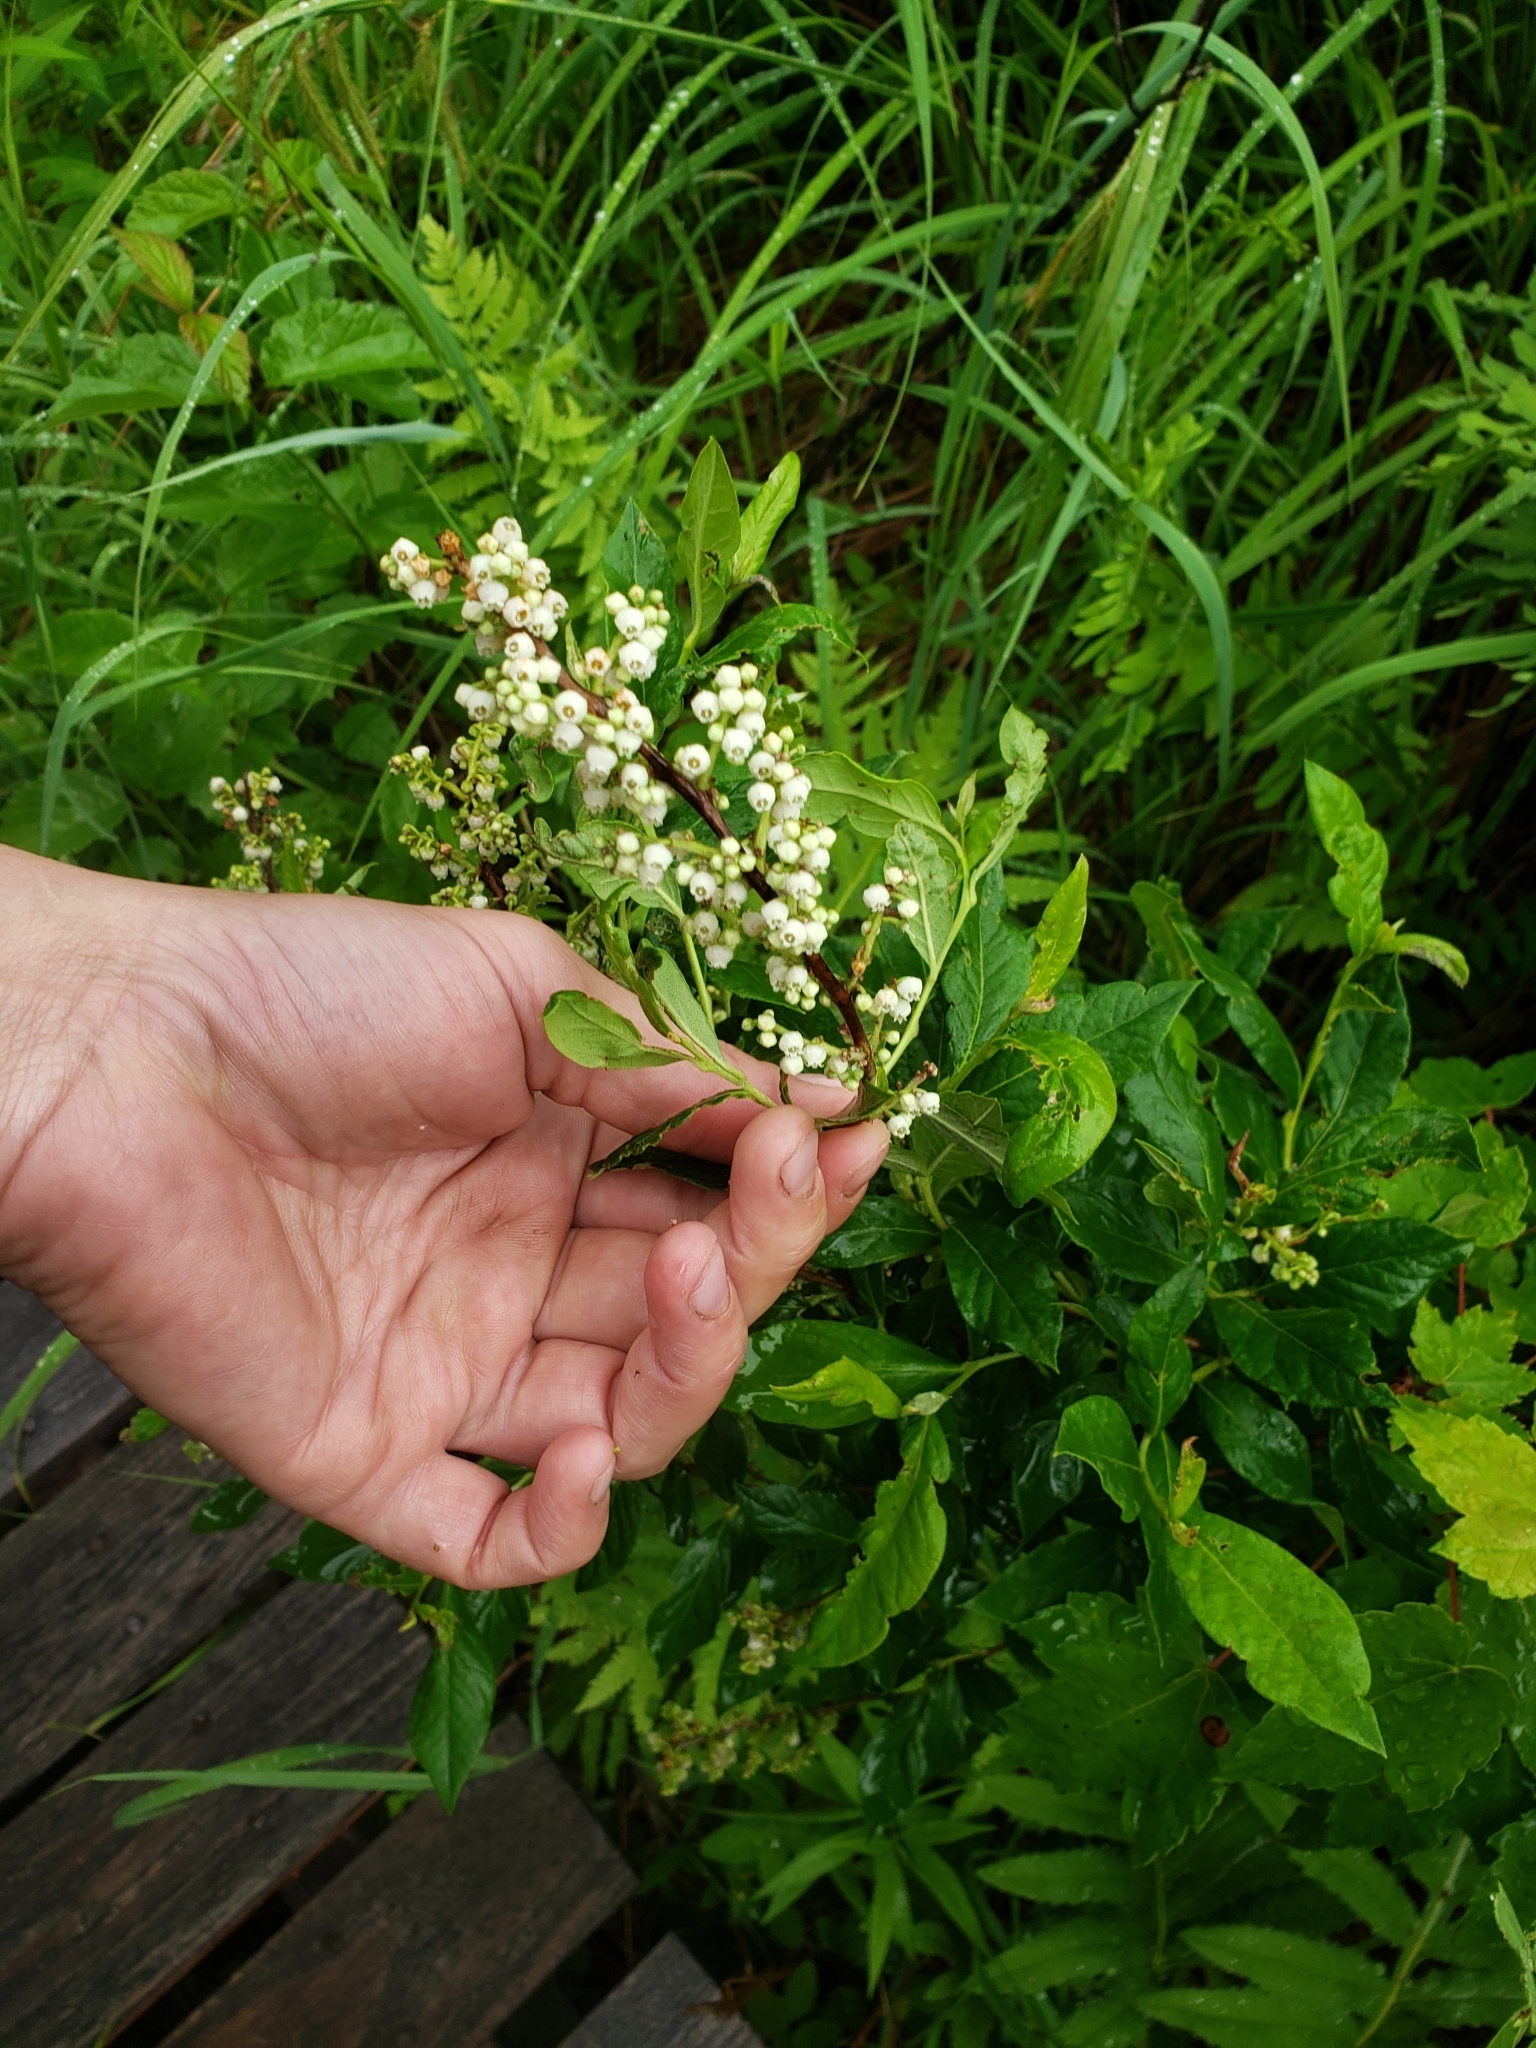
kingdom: Plantae
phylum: Tracheophyta
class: Magnoliopsida
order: Ericales
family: Ericaceae
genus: Lyonia
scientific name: Lyonia ligustrina
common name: Maleberry
